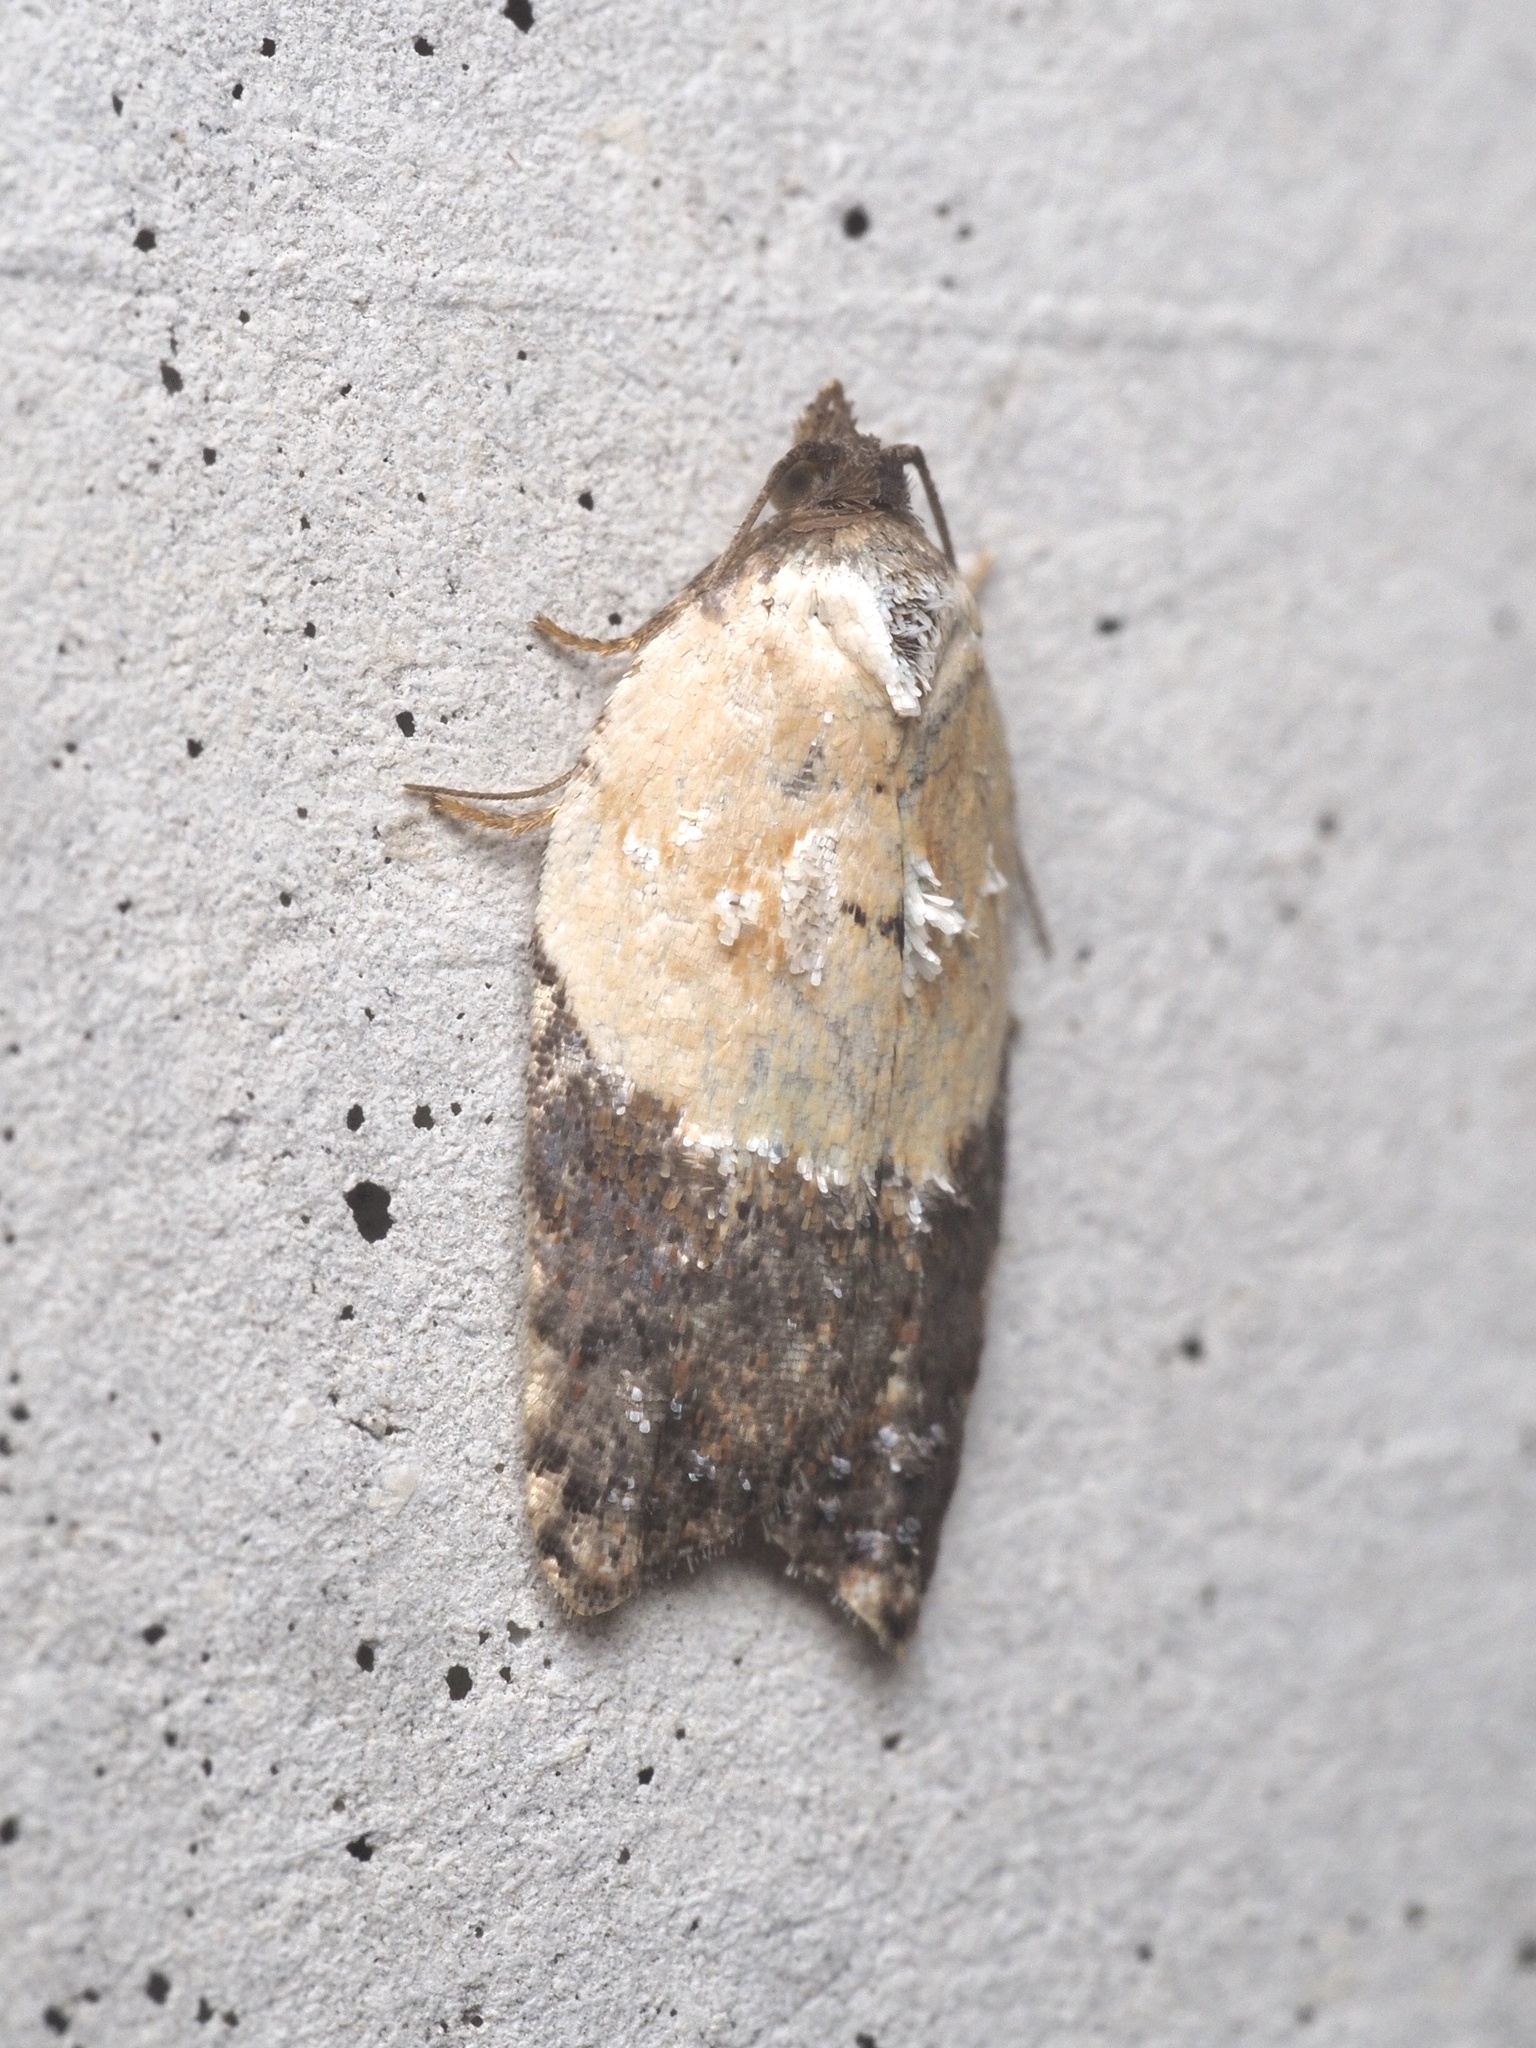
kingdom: Animalia
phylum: Arthropoda
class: Insecta
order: Lepidoptera
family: Tortricidae
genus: Acleris
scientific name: Acleris variegana
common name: Garden rose tortrix
